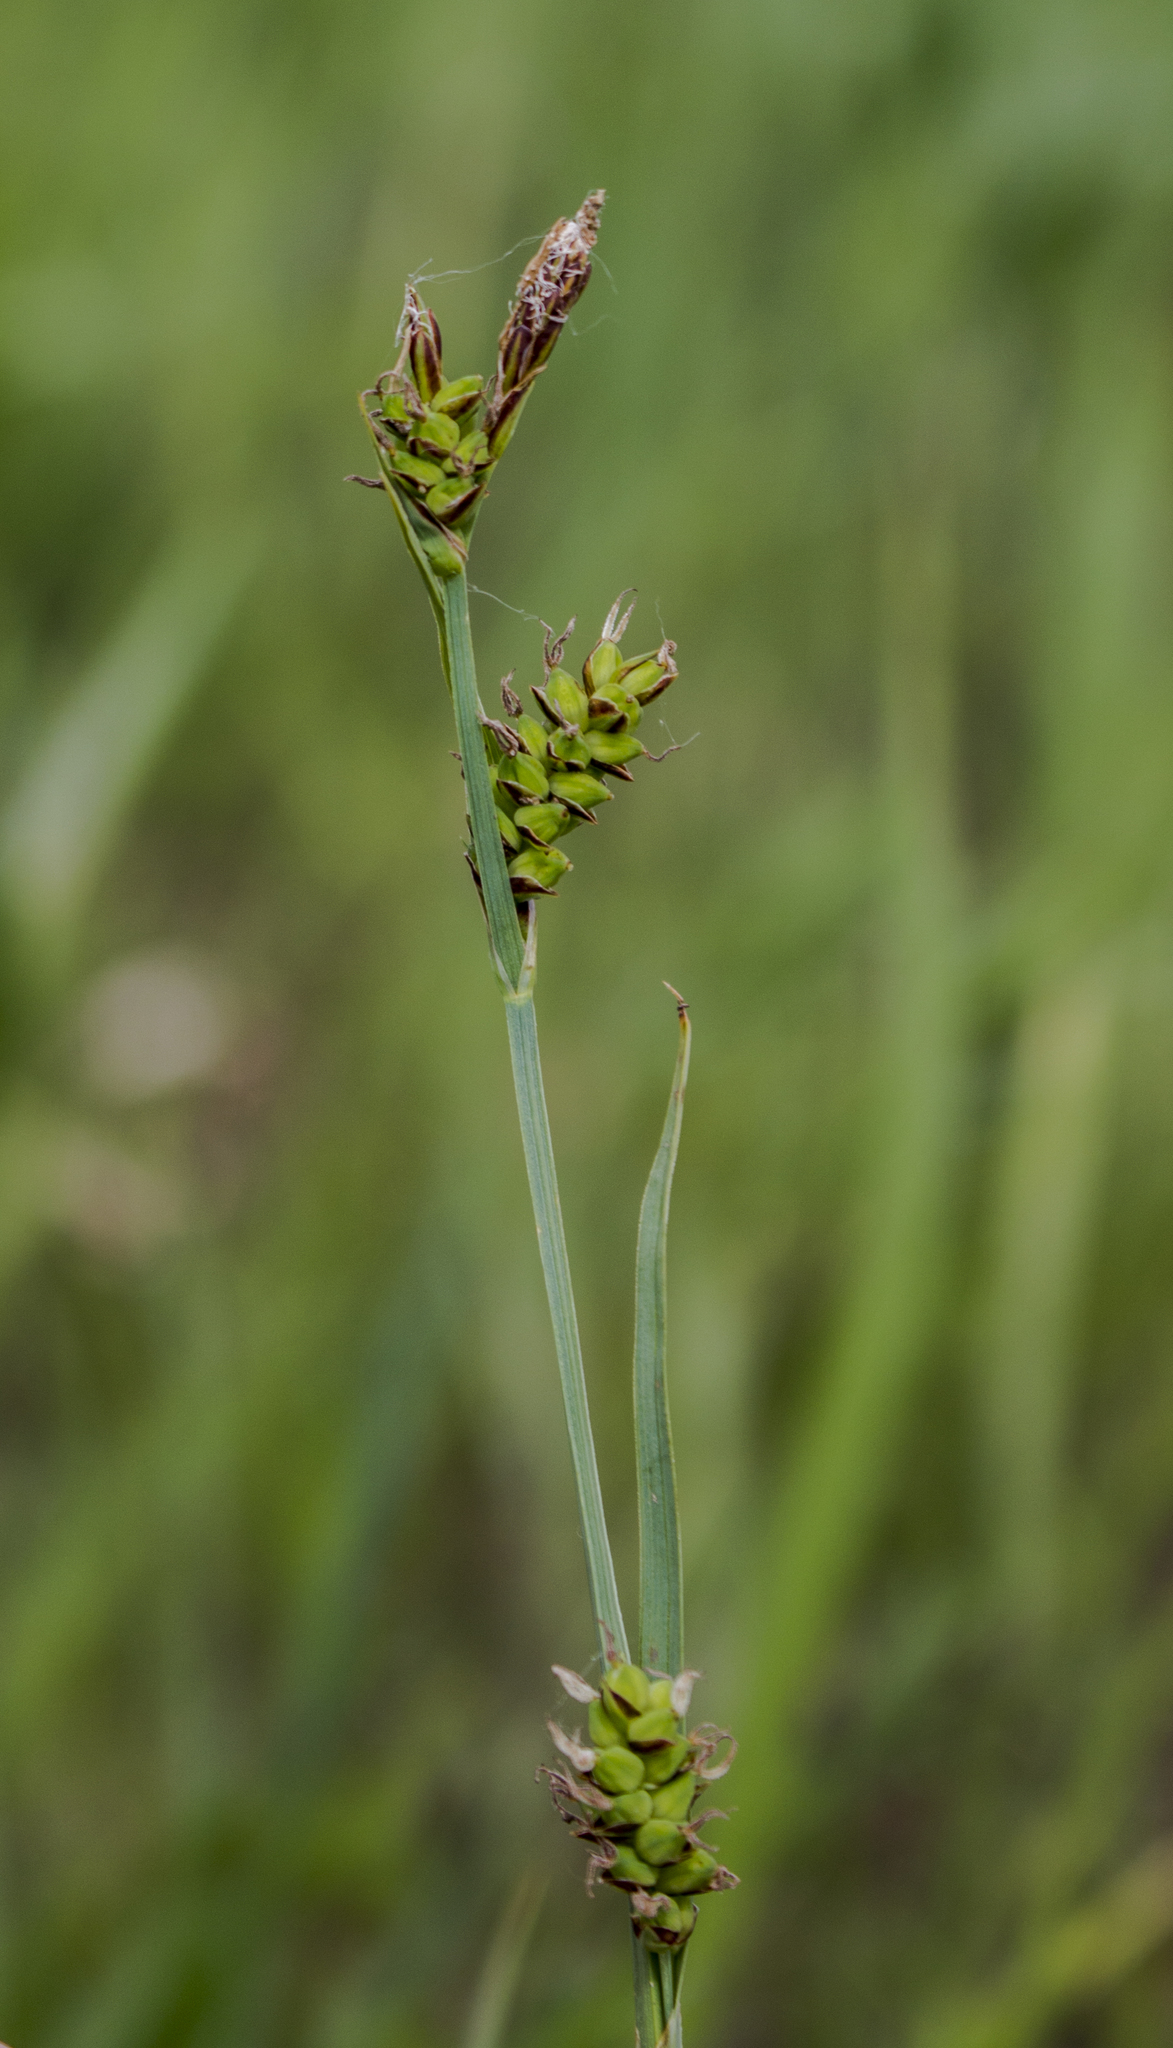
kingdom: Plantae
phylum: Tracheophyta
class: Liliopsida
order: Poales
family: Cyperaceae
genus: Carex
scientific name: Carex meadii
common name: Mead's sedge
